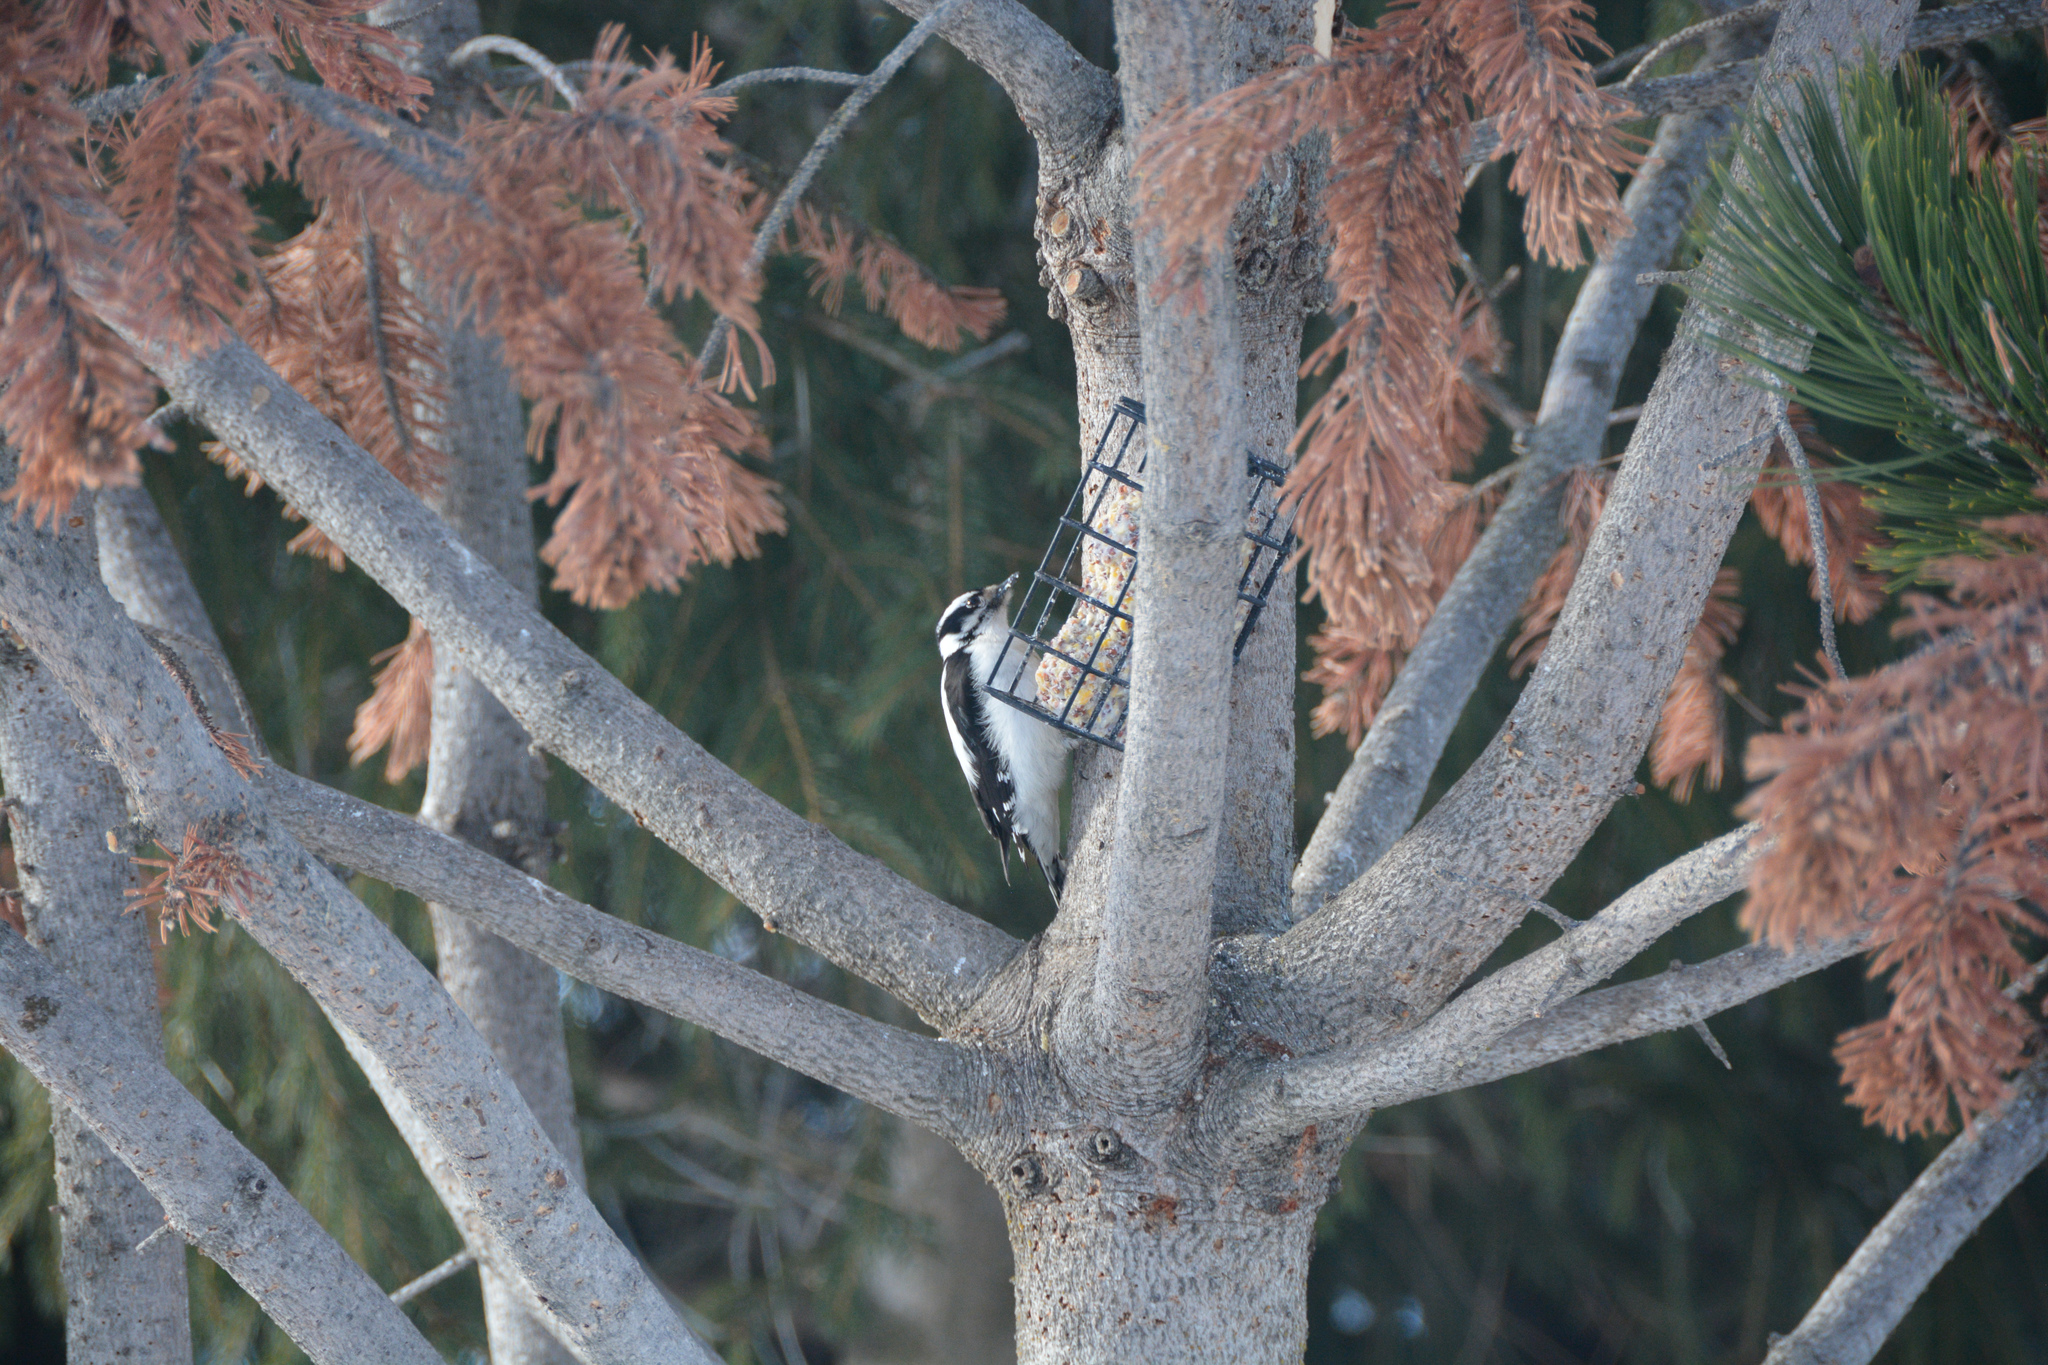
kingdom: Animalia
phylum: Chordata
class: Aves
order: Piciformes
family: Picidae
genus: Dryobates
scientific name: Dryobates pubescens
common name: Downy woodpecker
